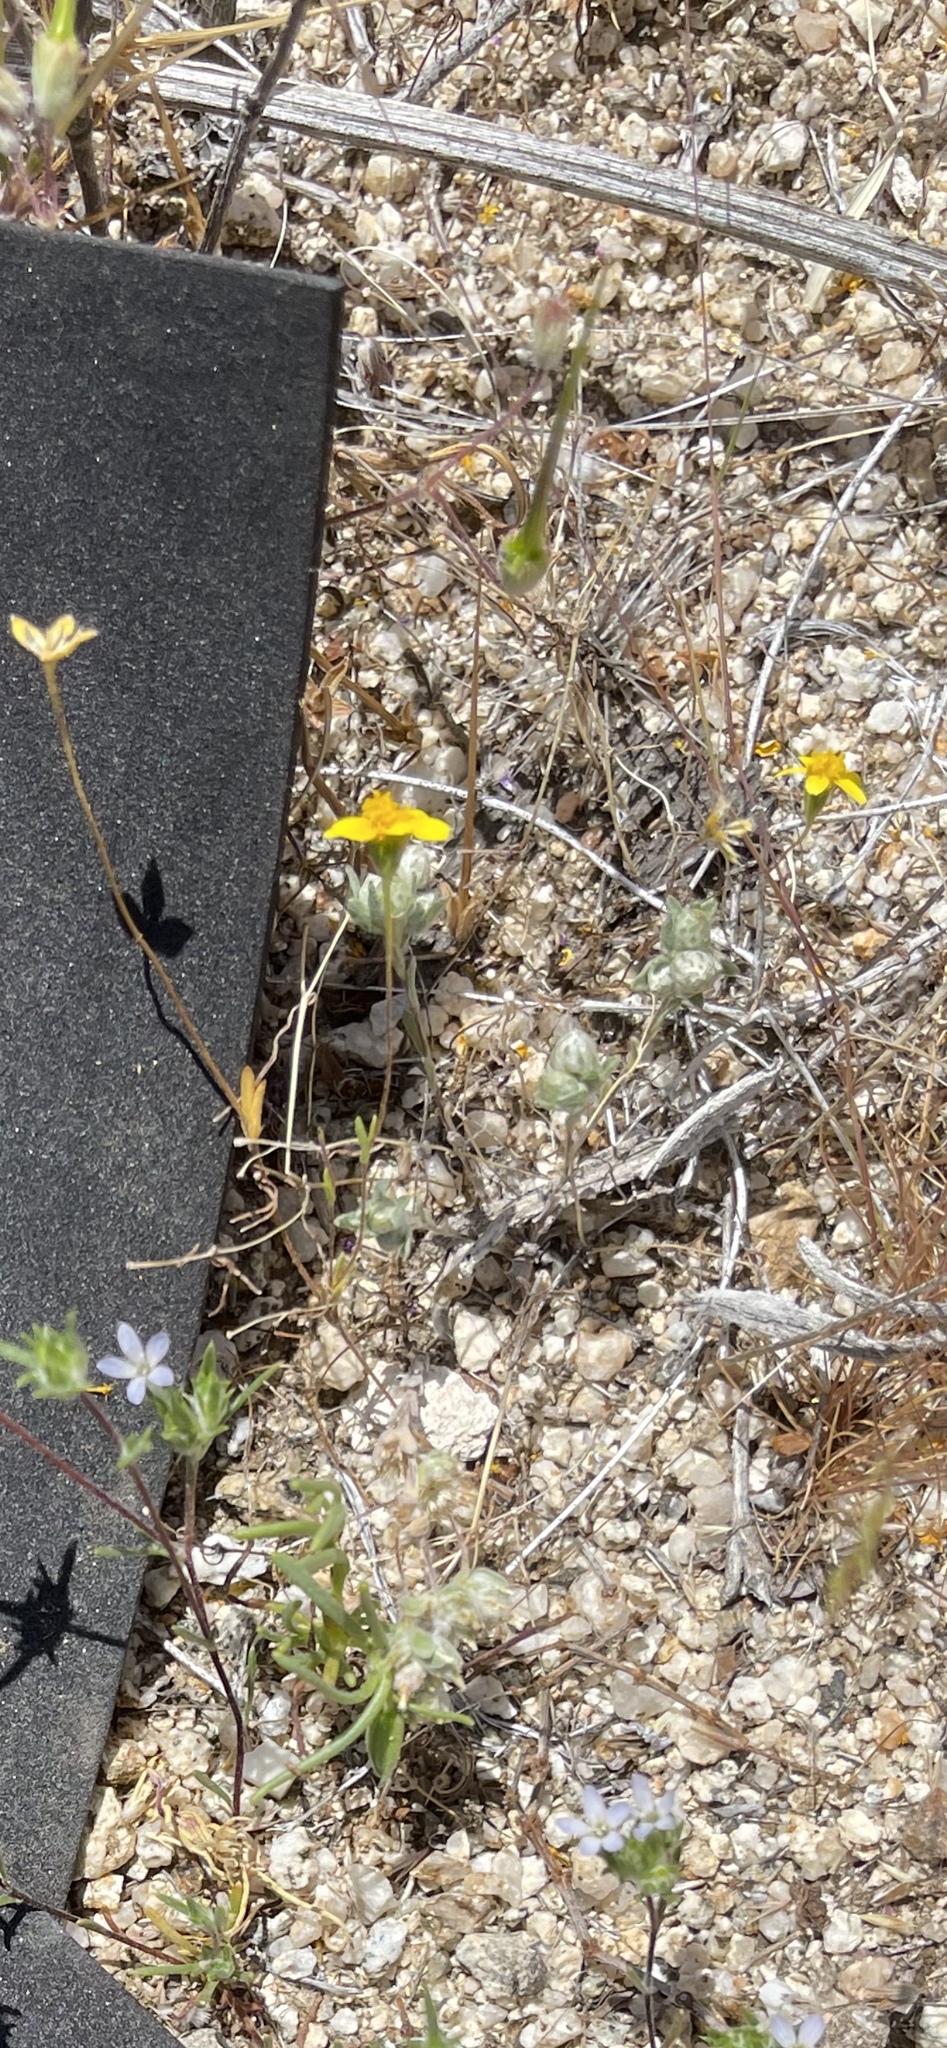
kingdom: Plantae
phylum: Tracheophyta
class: Magnoliopsida
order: Asterales
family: Asteraceae
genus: Lasthenia
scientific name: Lasthenia gracilis
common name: Common goldfields
